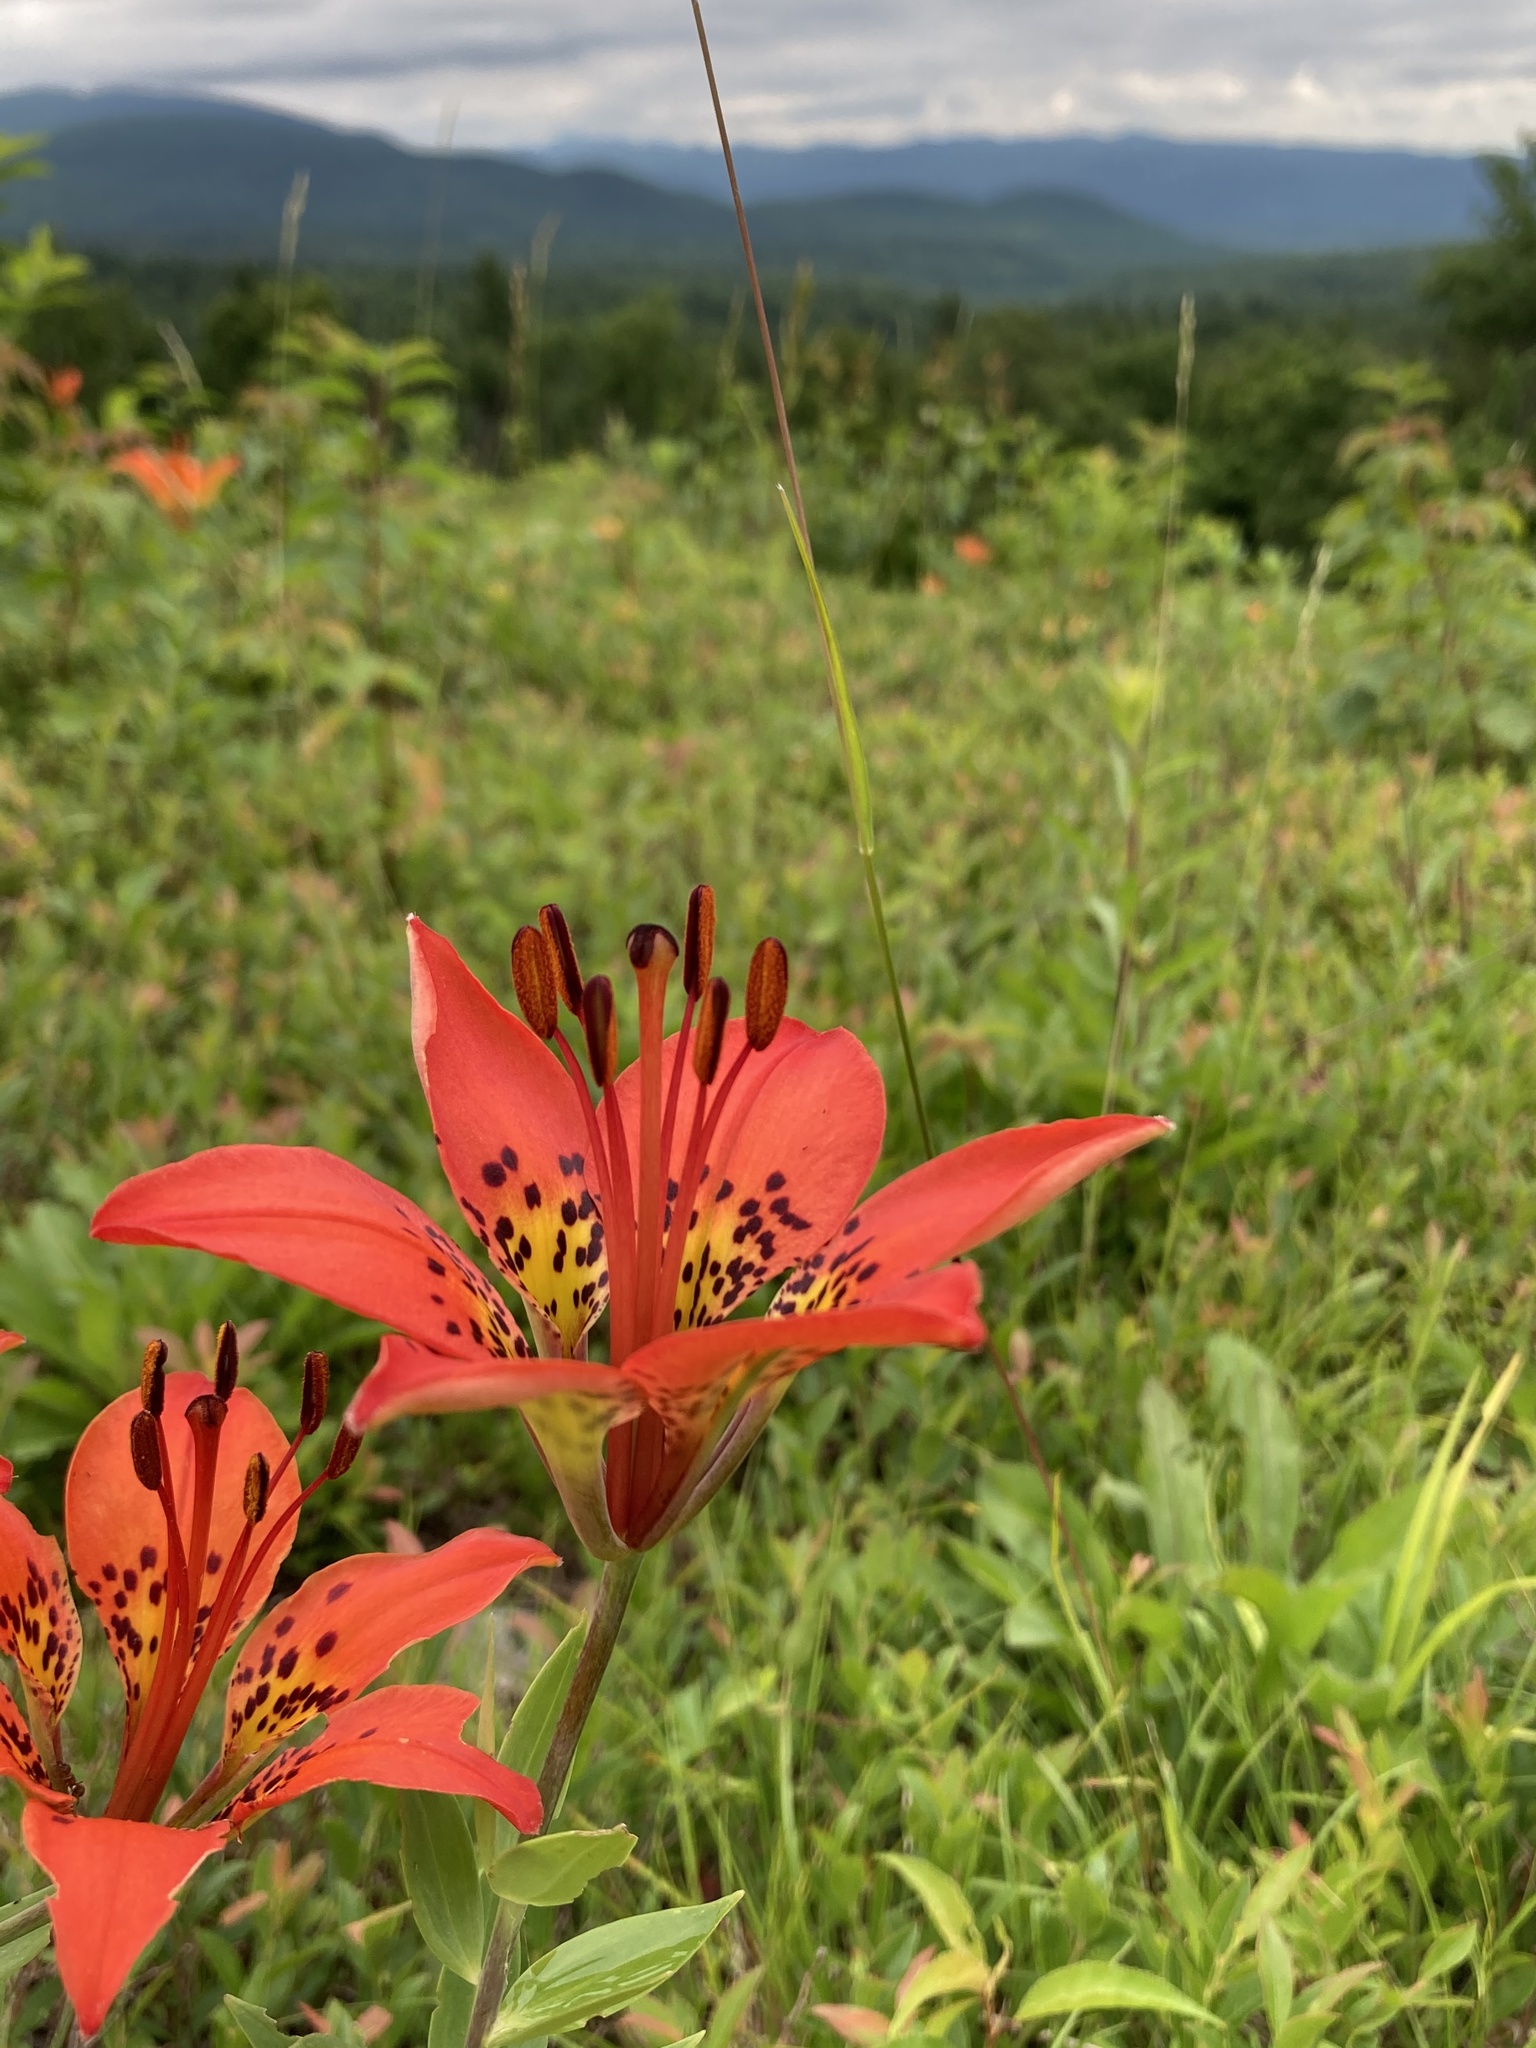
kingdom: Plantae
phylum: Tracheophyta
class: Liliopsida
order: Liliales
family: Liliaceae
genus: Lilium
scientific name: Lilium philadelphicum
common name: Red lily
